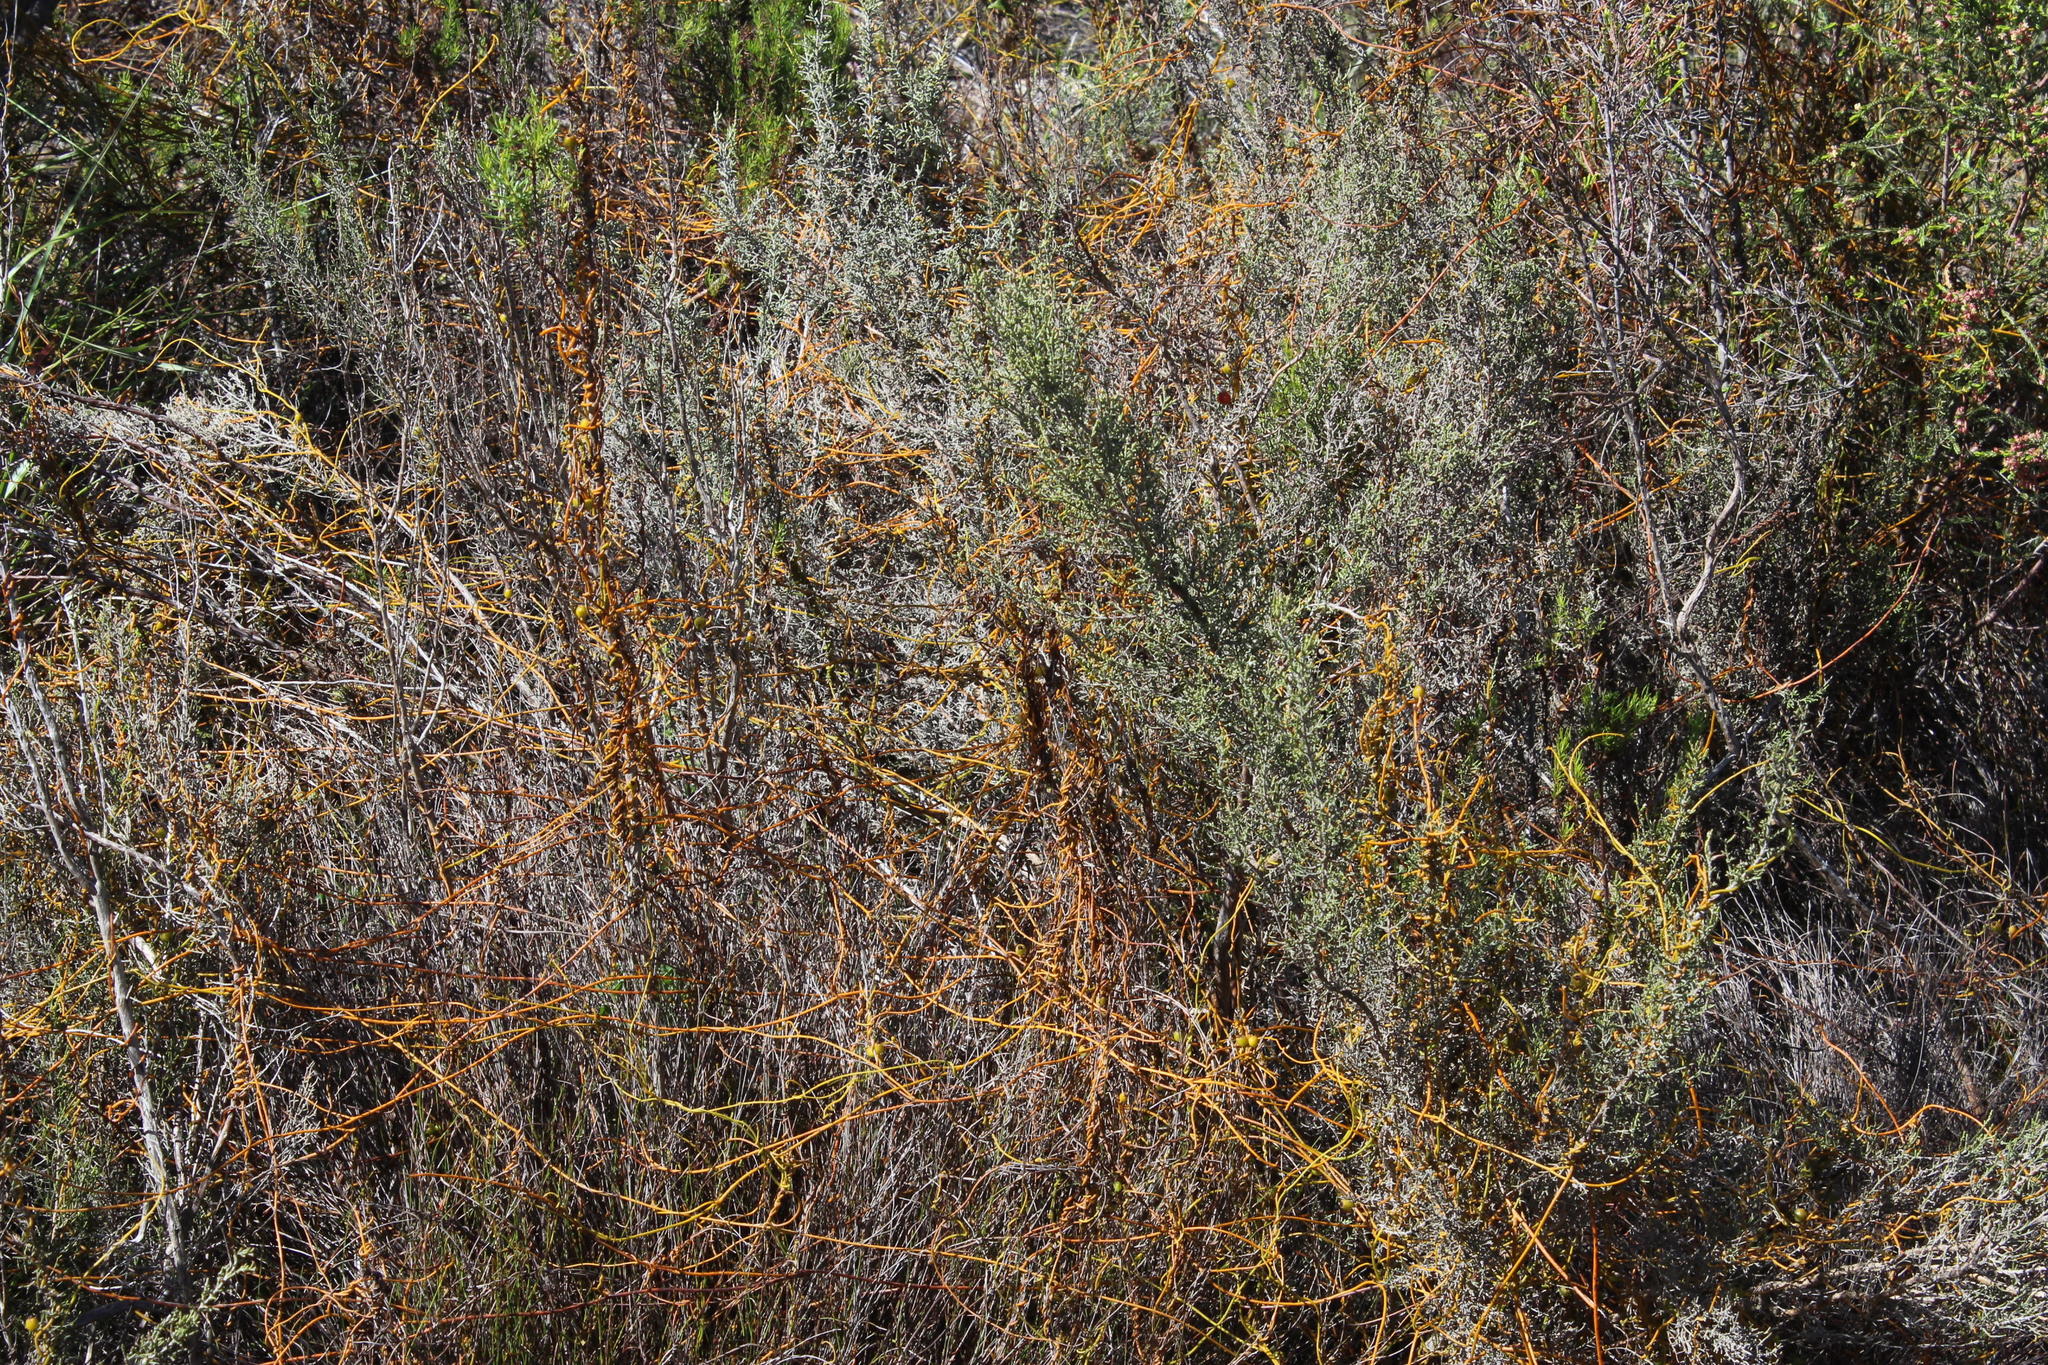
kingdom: Plantae
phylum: Tracheophyta
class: Magnoliopsida
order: Laurales
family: Lauraceae
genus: Cassytha
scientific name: Cassytha ciliolata
